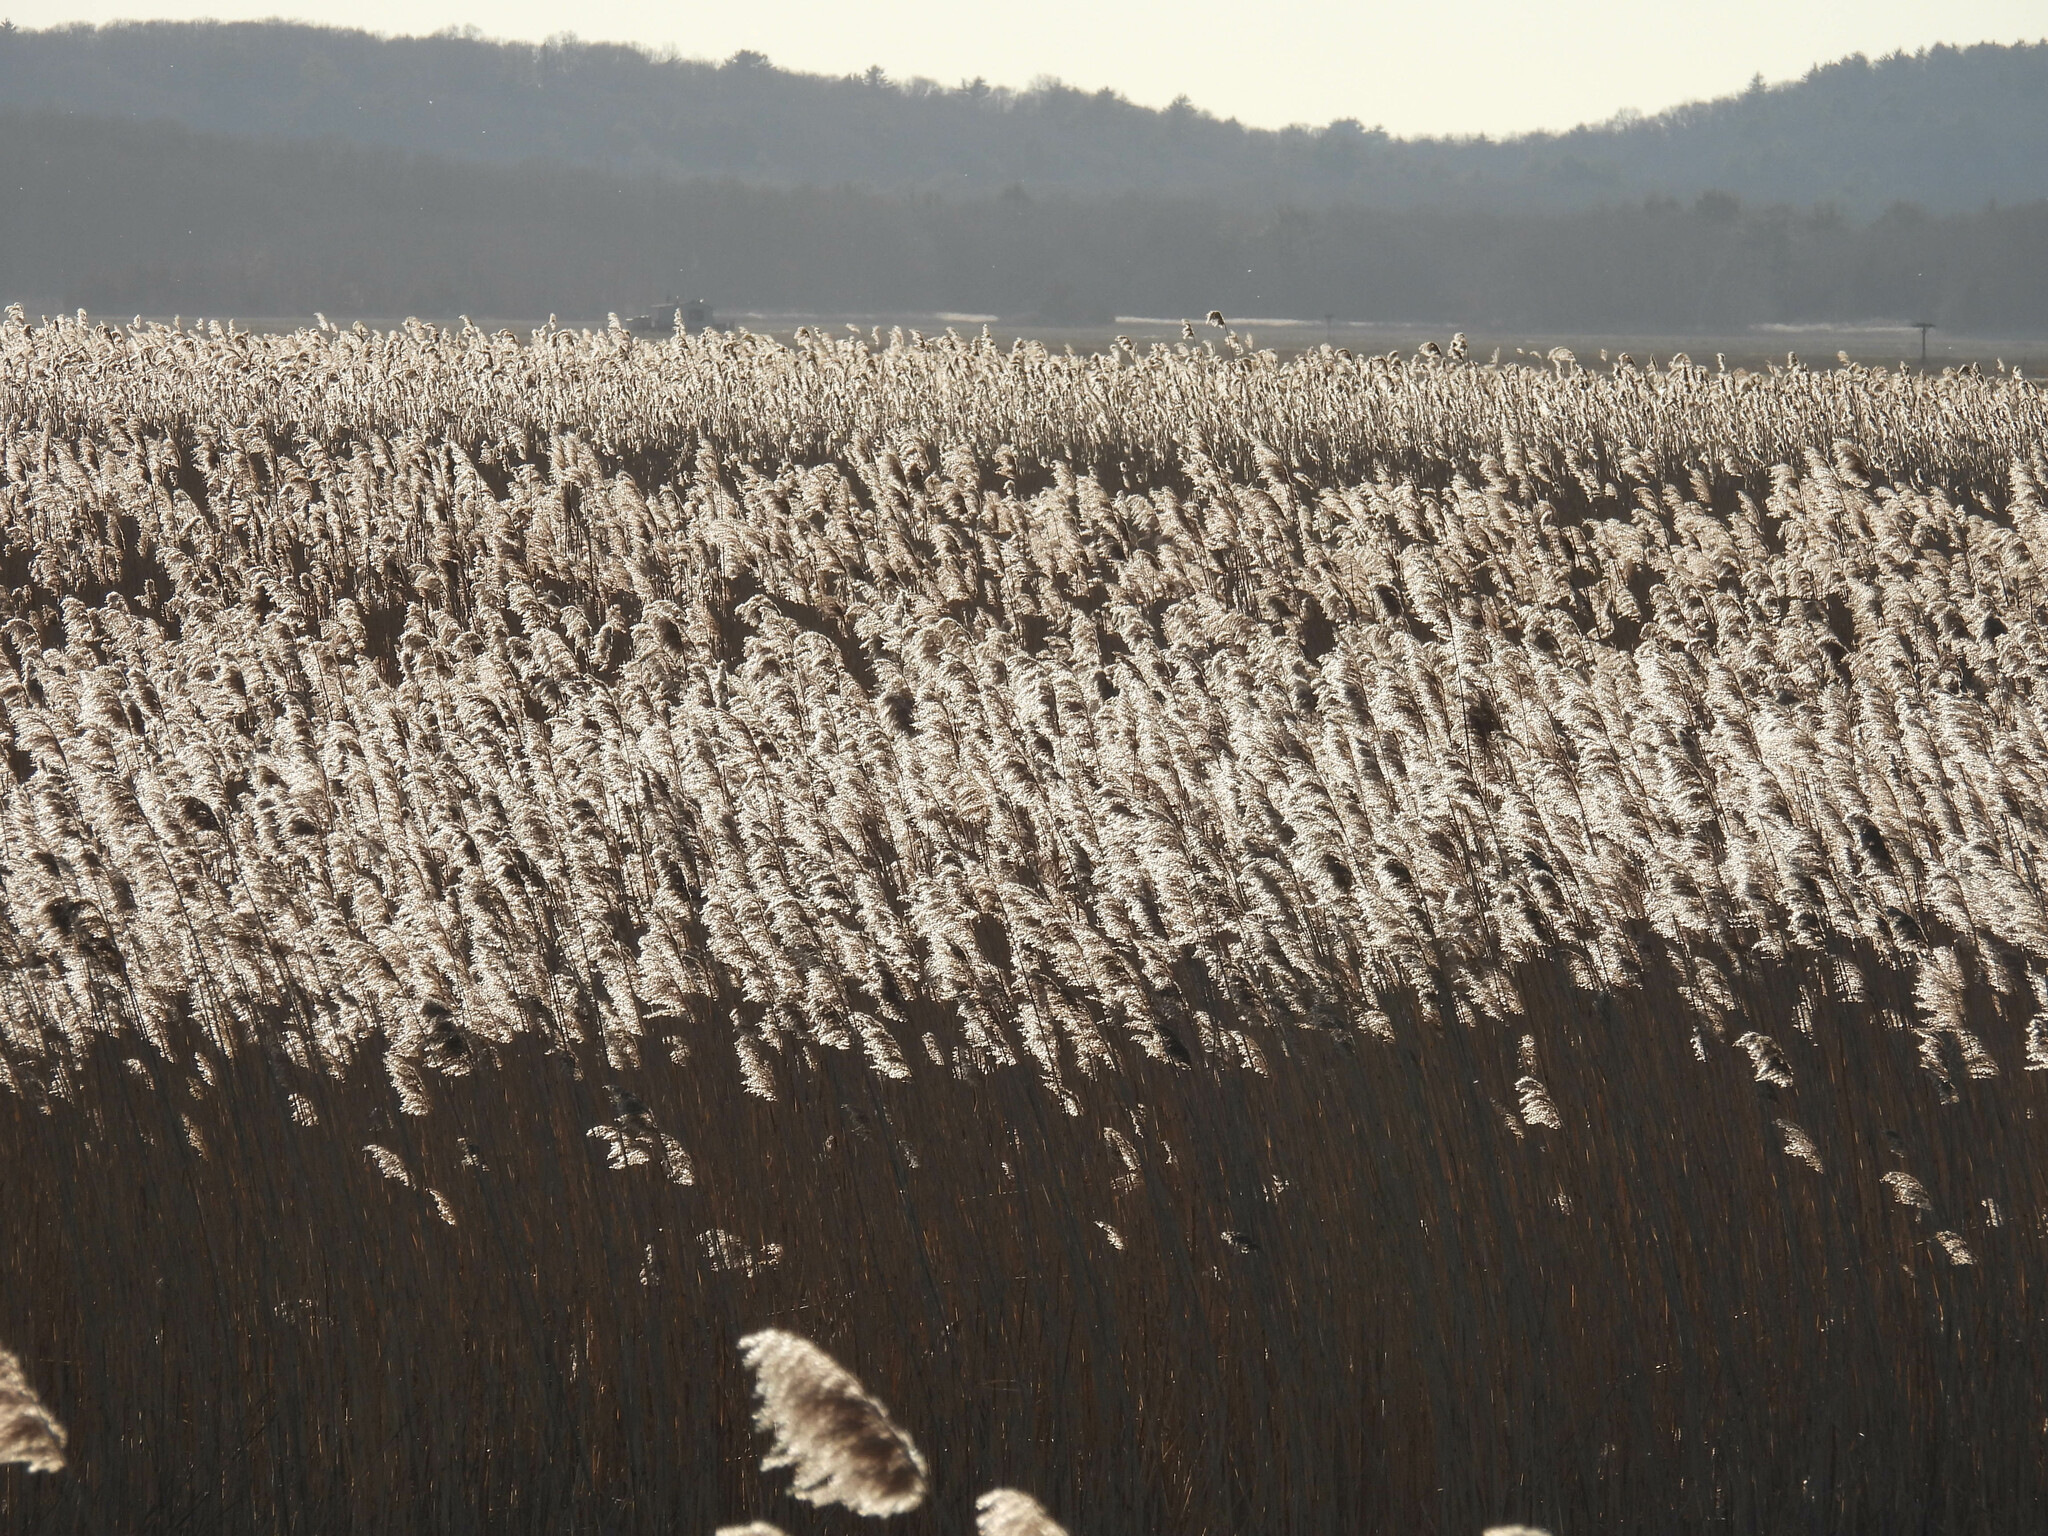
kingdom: Plantae
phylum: Tracheophyta
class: Liliopsida
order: Poales
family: Poaceae
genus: Phragmites
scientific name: Phragmites australis
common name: Common reed
